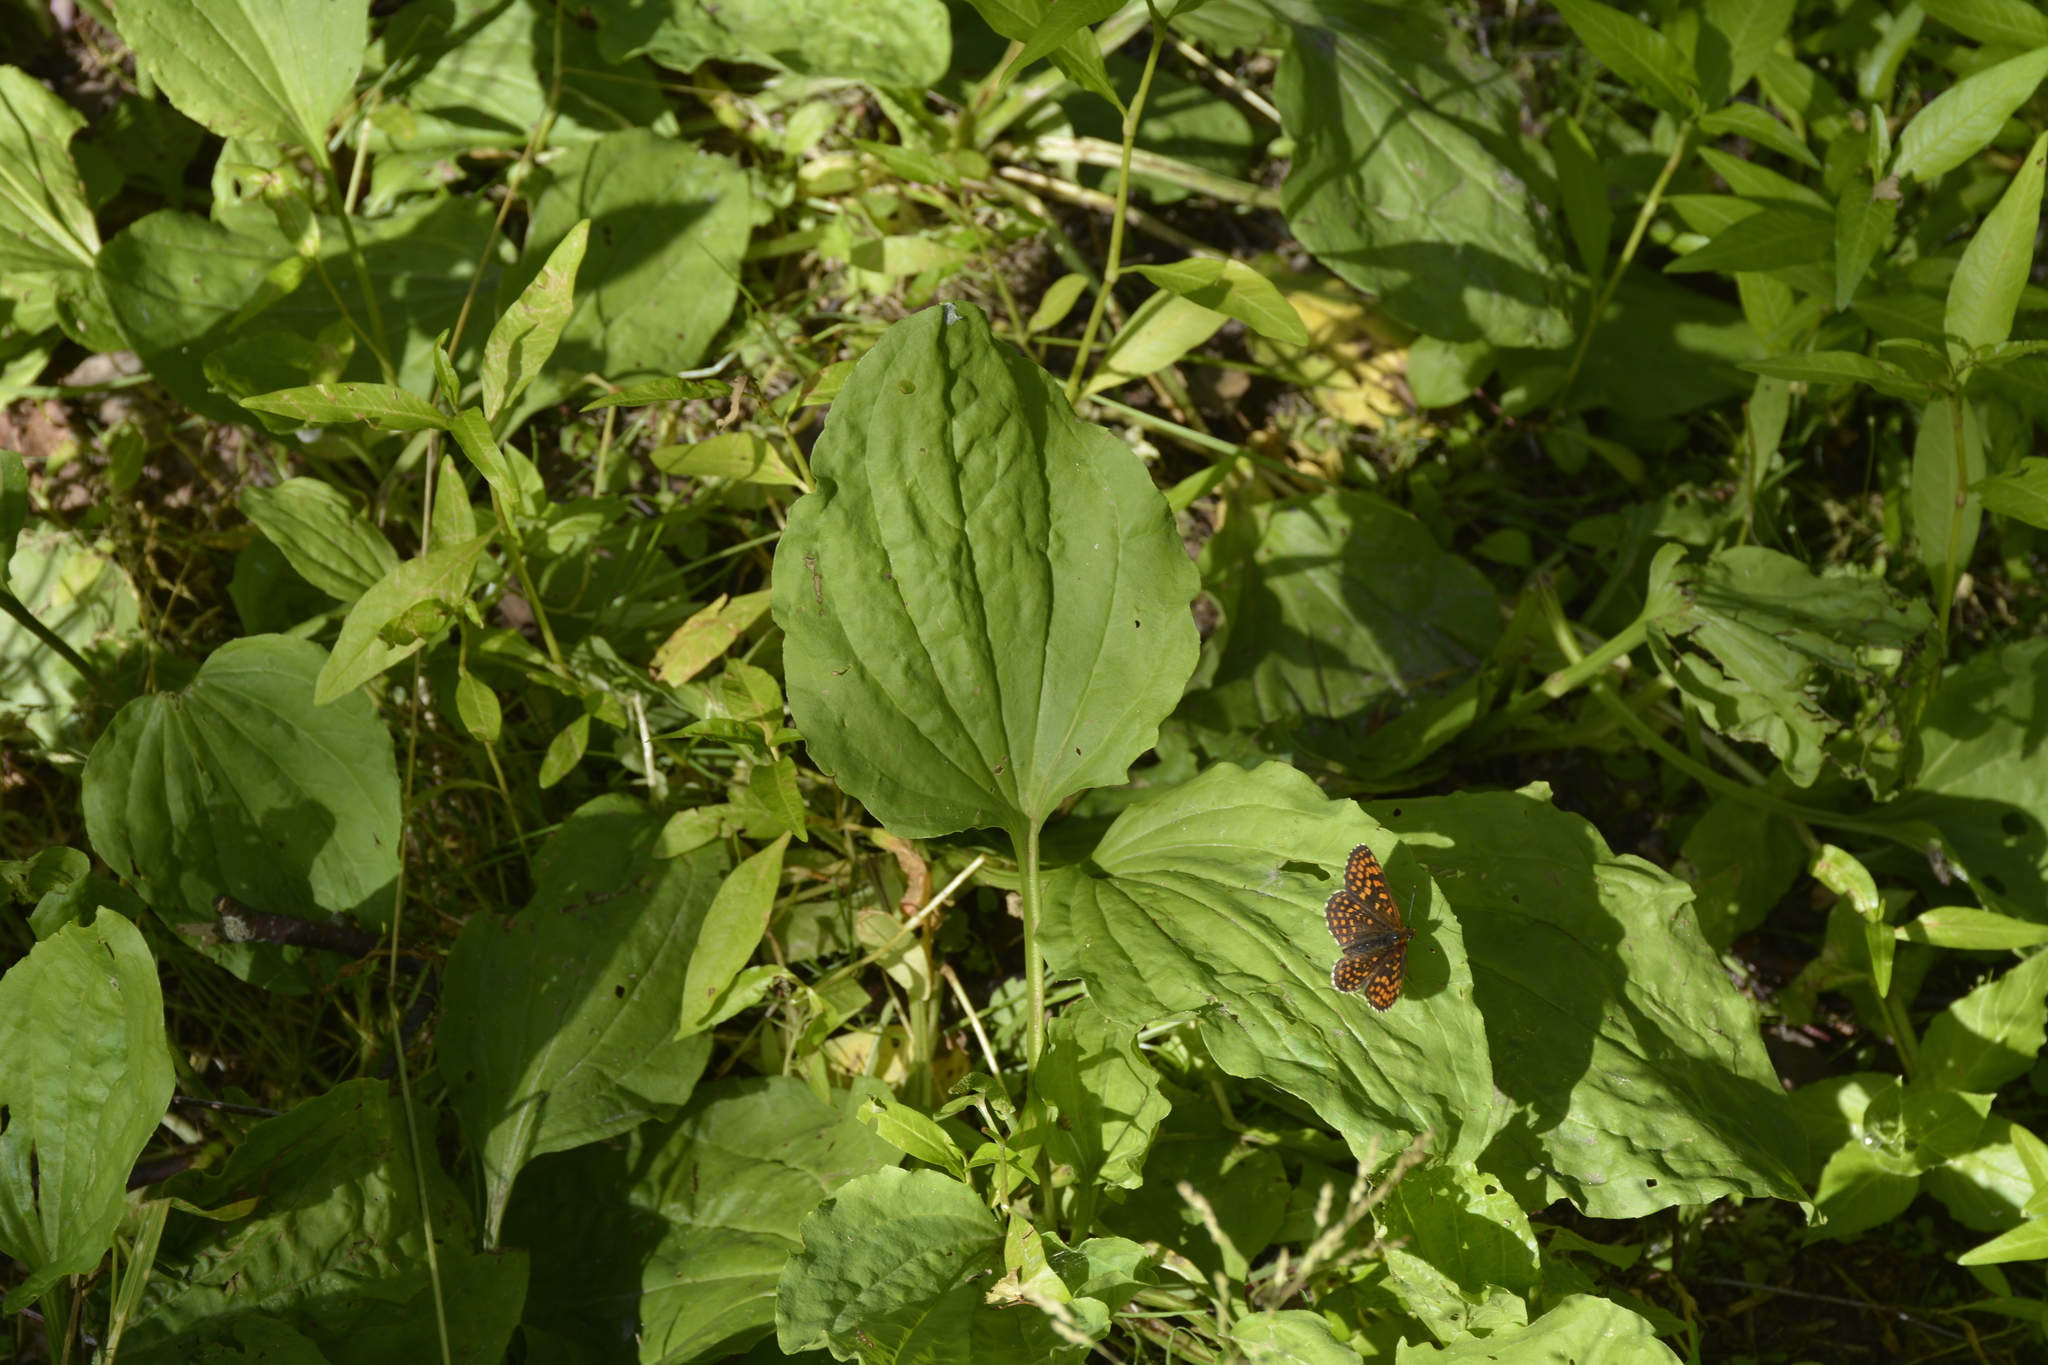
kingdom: Plantae
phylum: Tracheophyta
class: Magnoliopsida
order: Lamiales
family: Plantaginaceae
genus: Plantago
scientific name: Plantago major
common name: Common plantain
